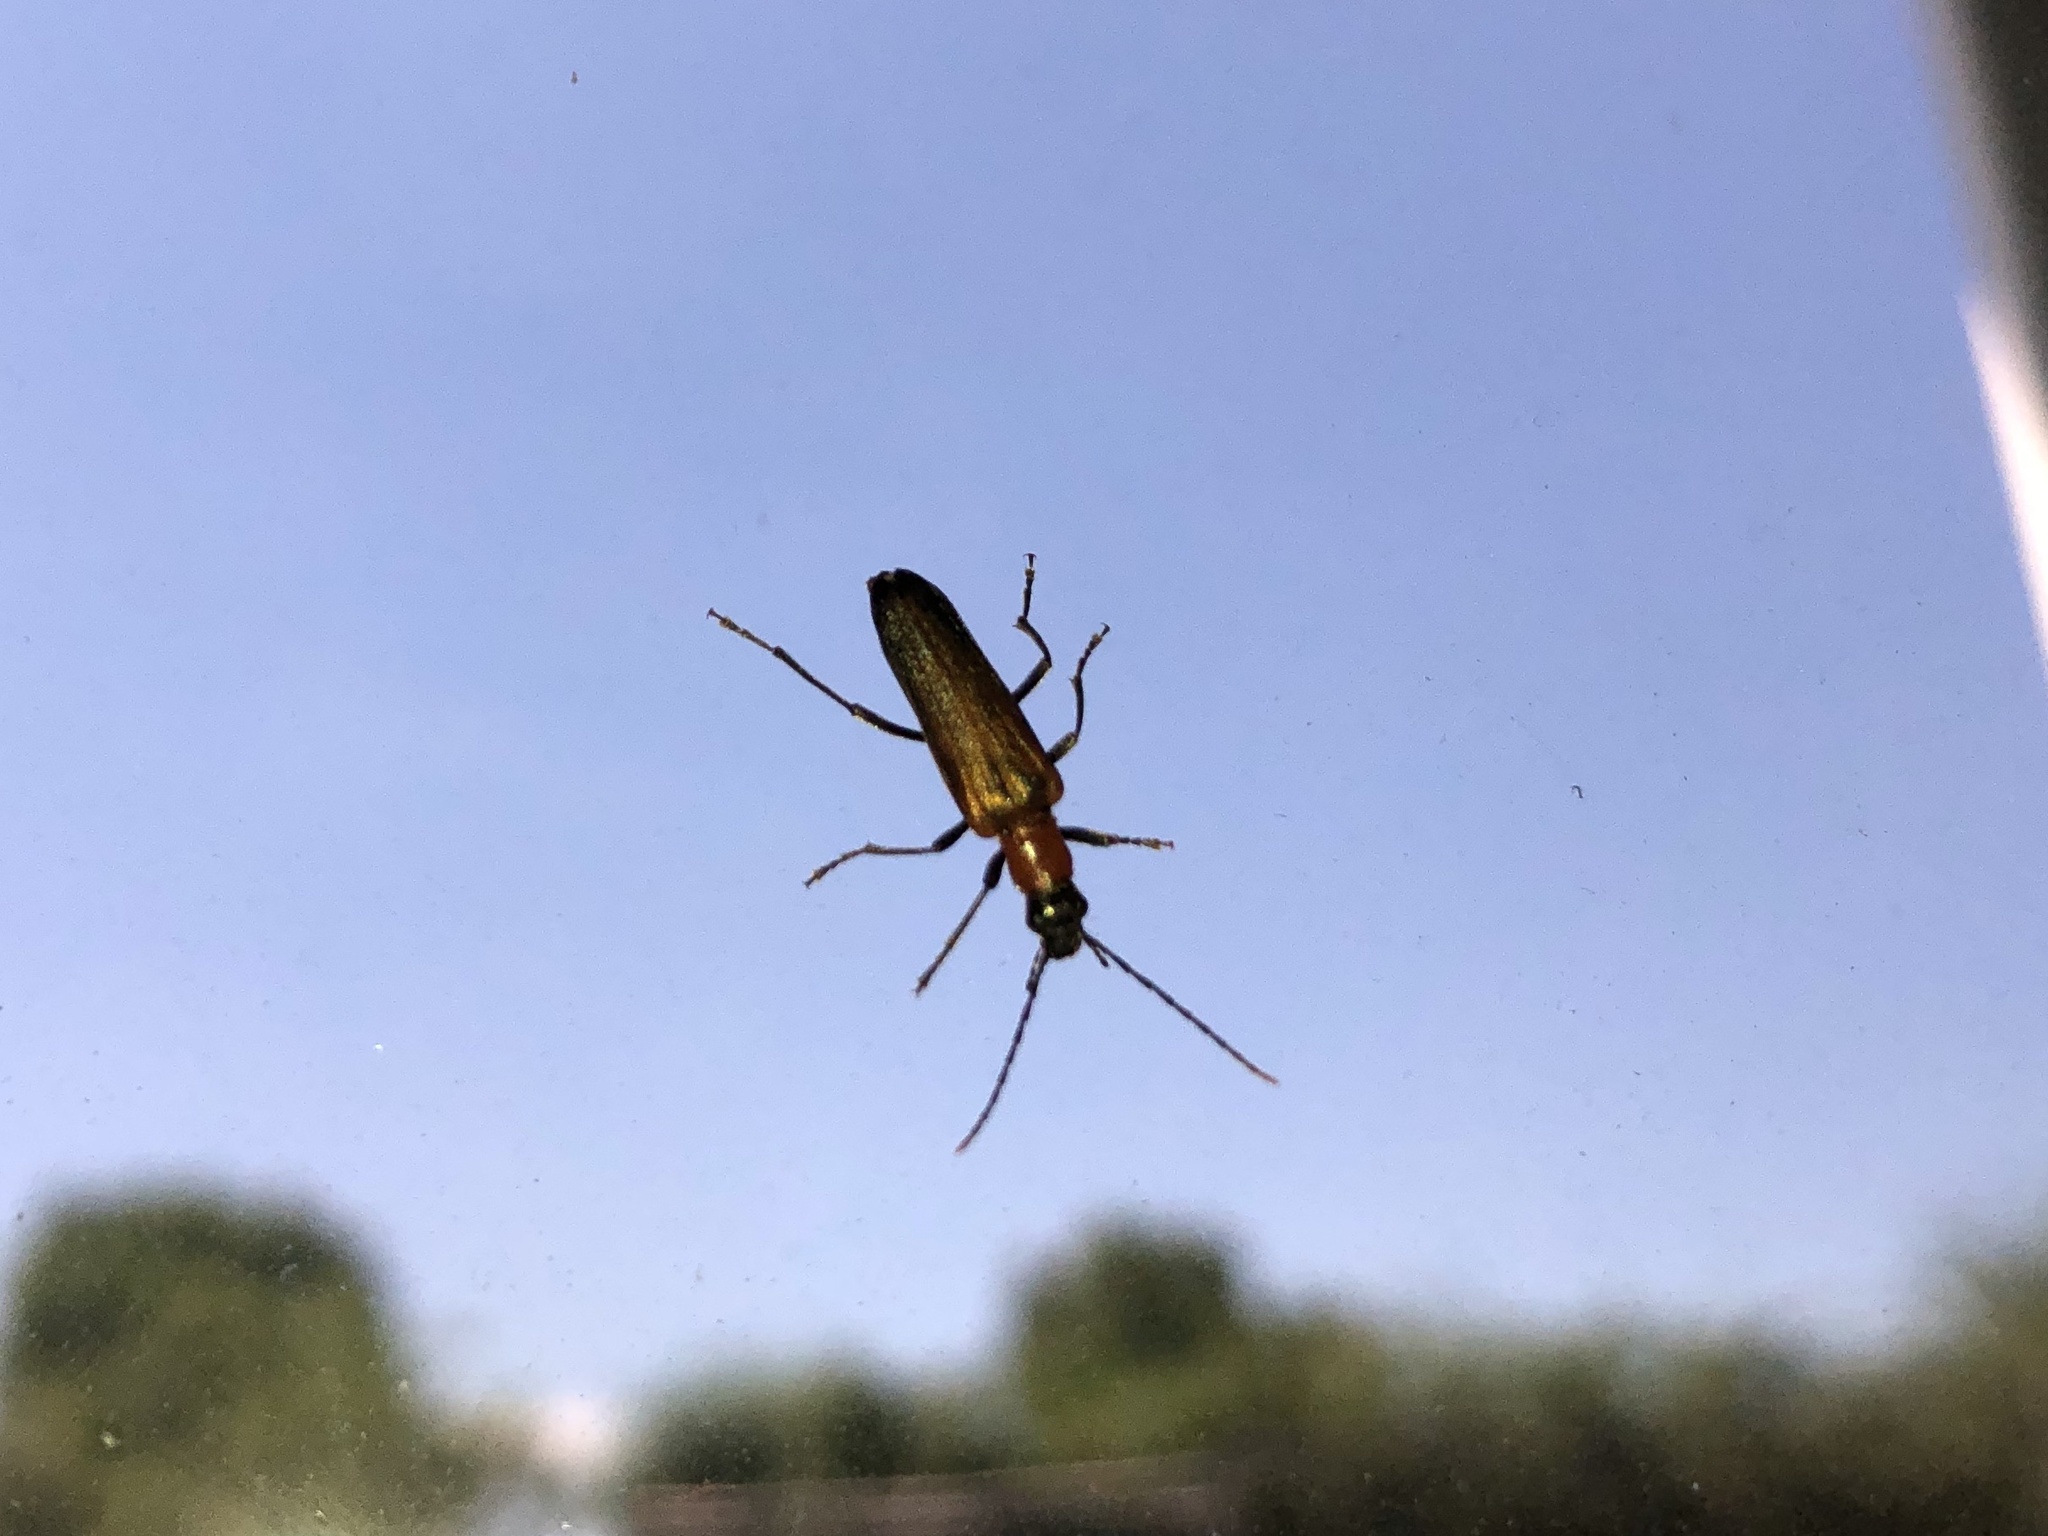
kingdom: Animalia
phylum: Arthropoda
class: Insecta
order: Coleoptera
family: Oedemeridae
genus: Anogcodes
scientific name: Anogcodes rufiventris
